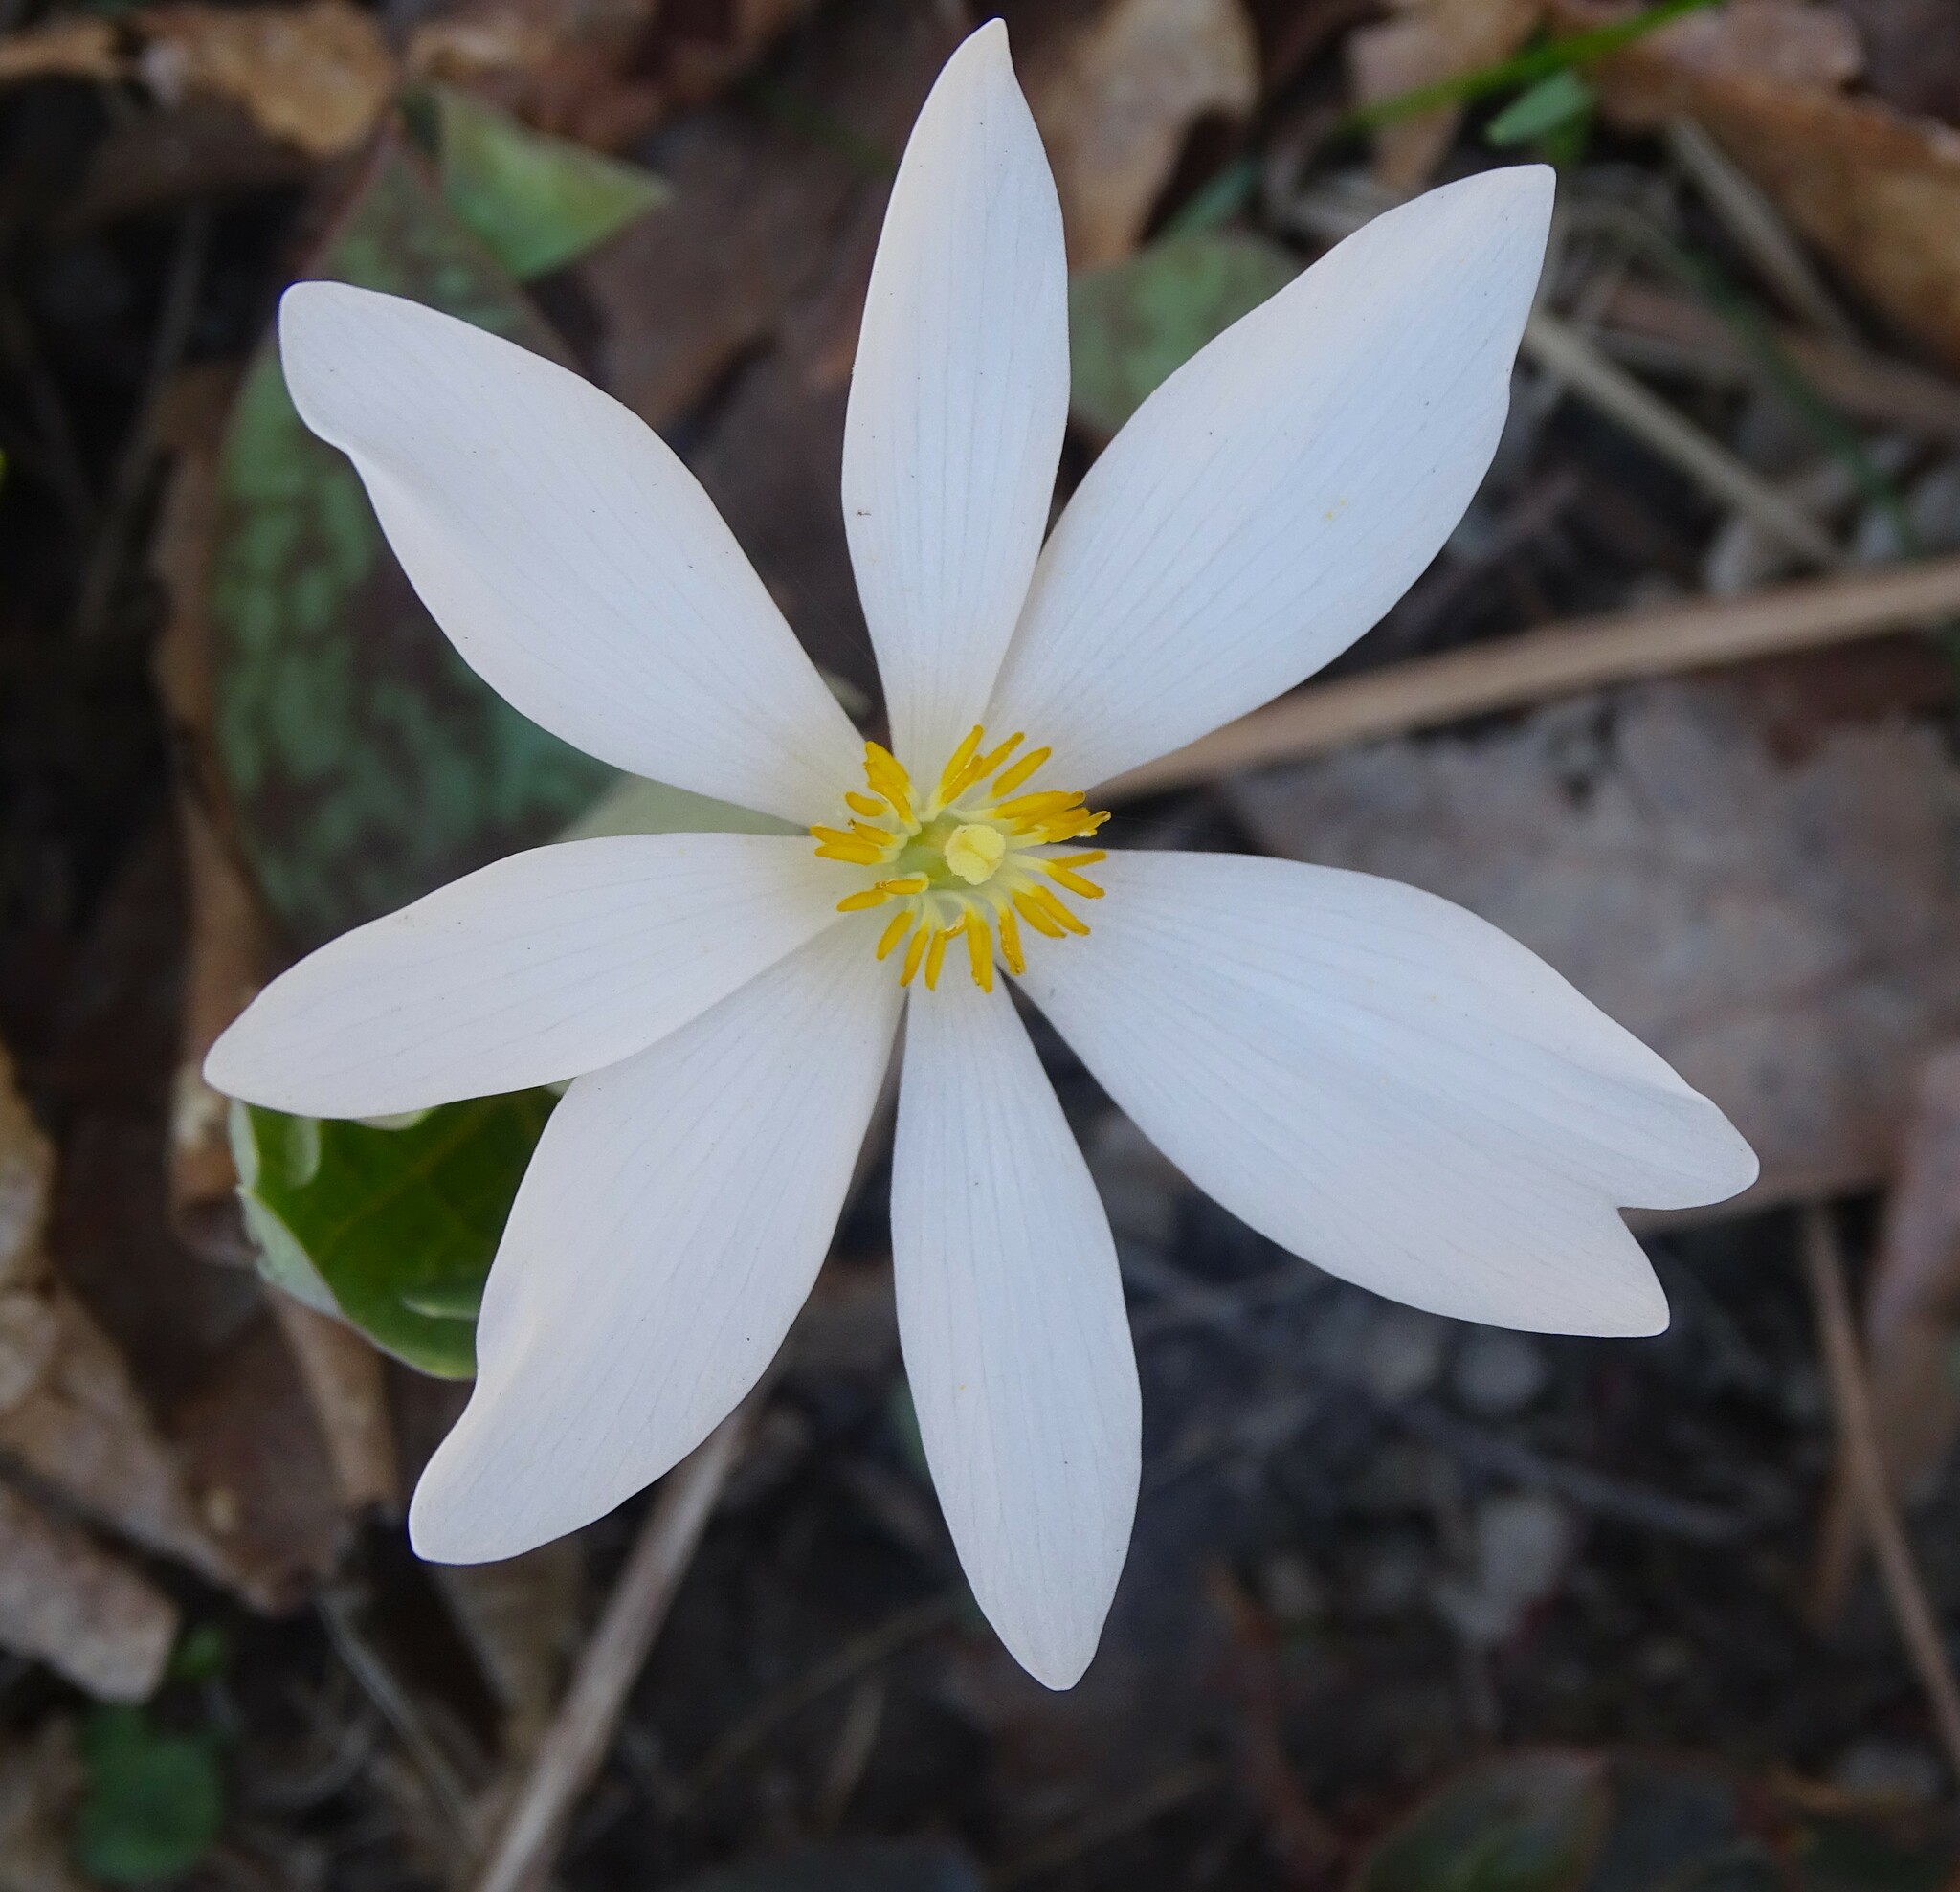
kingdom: Plantae
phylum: Tracheophyta
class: Magnoliopsida
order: Ranunculales
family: Papaveraceae
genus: Sanguinaria
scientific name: Sanguinaria canadensis
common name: Bloodroot
